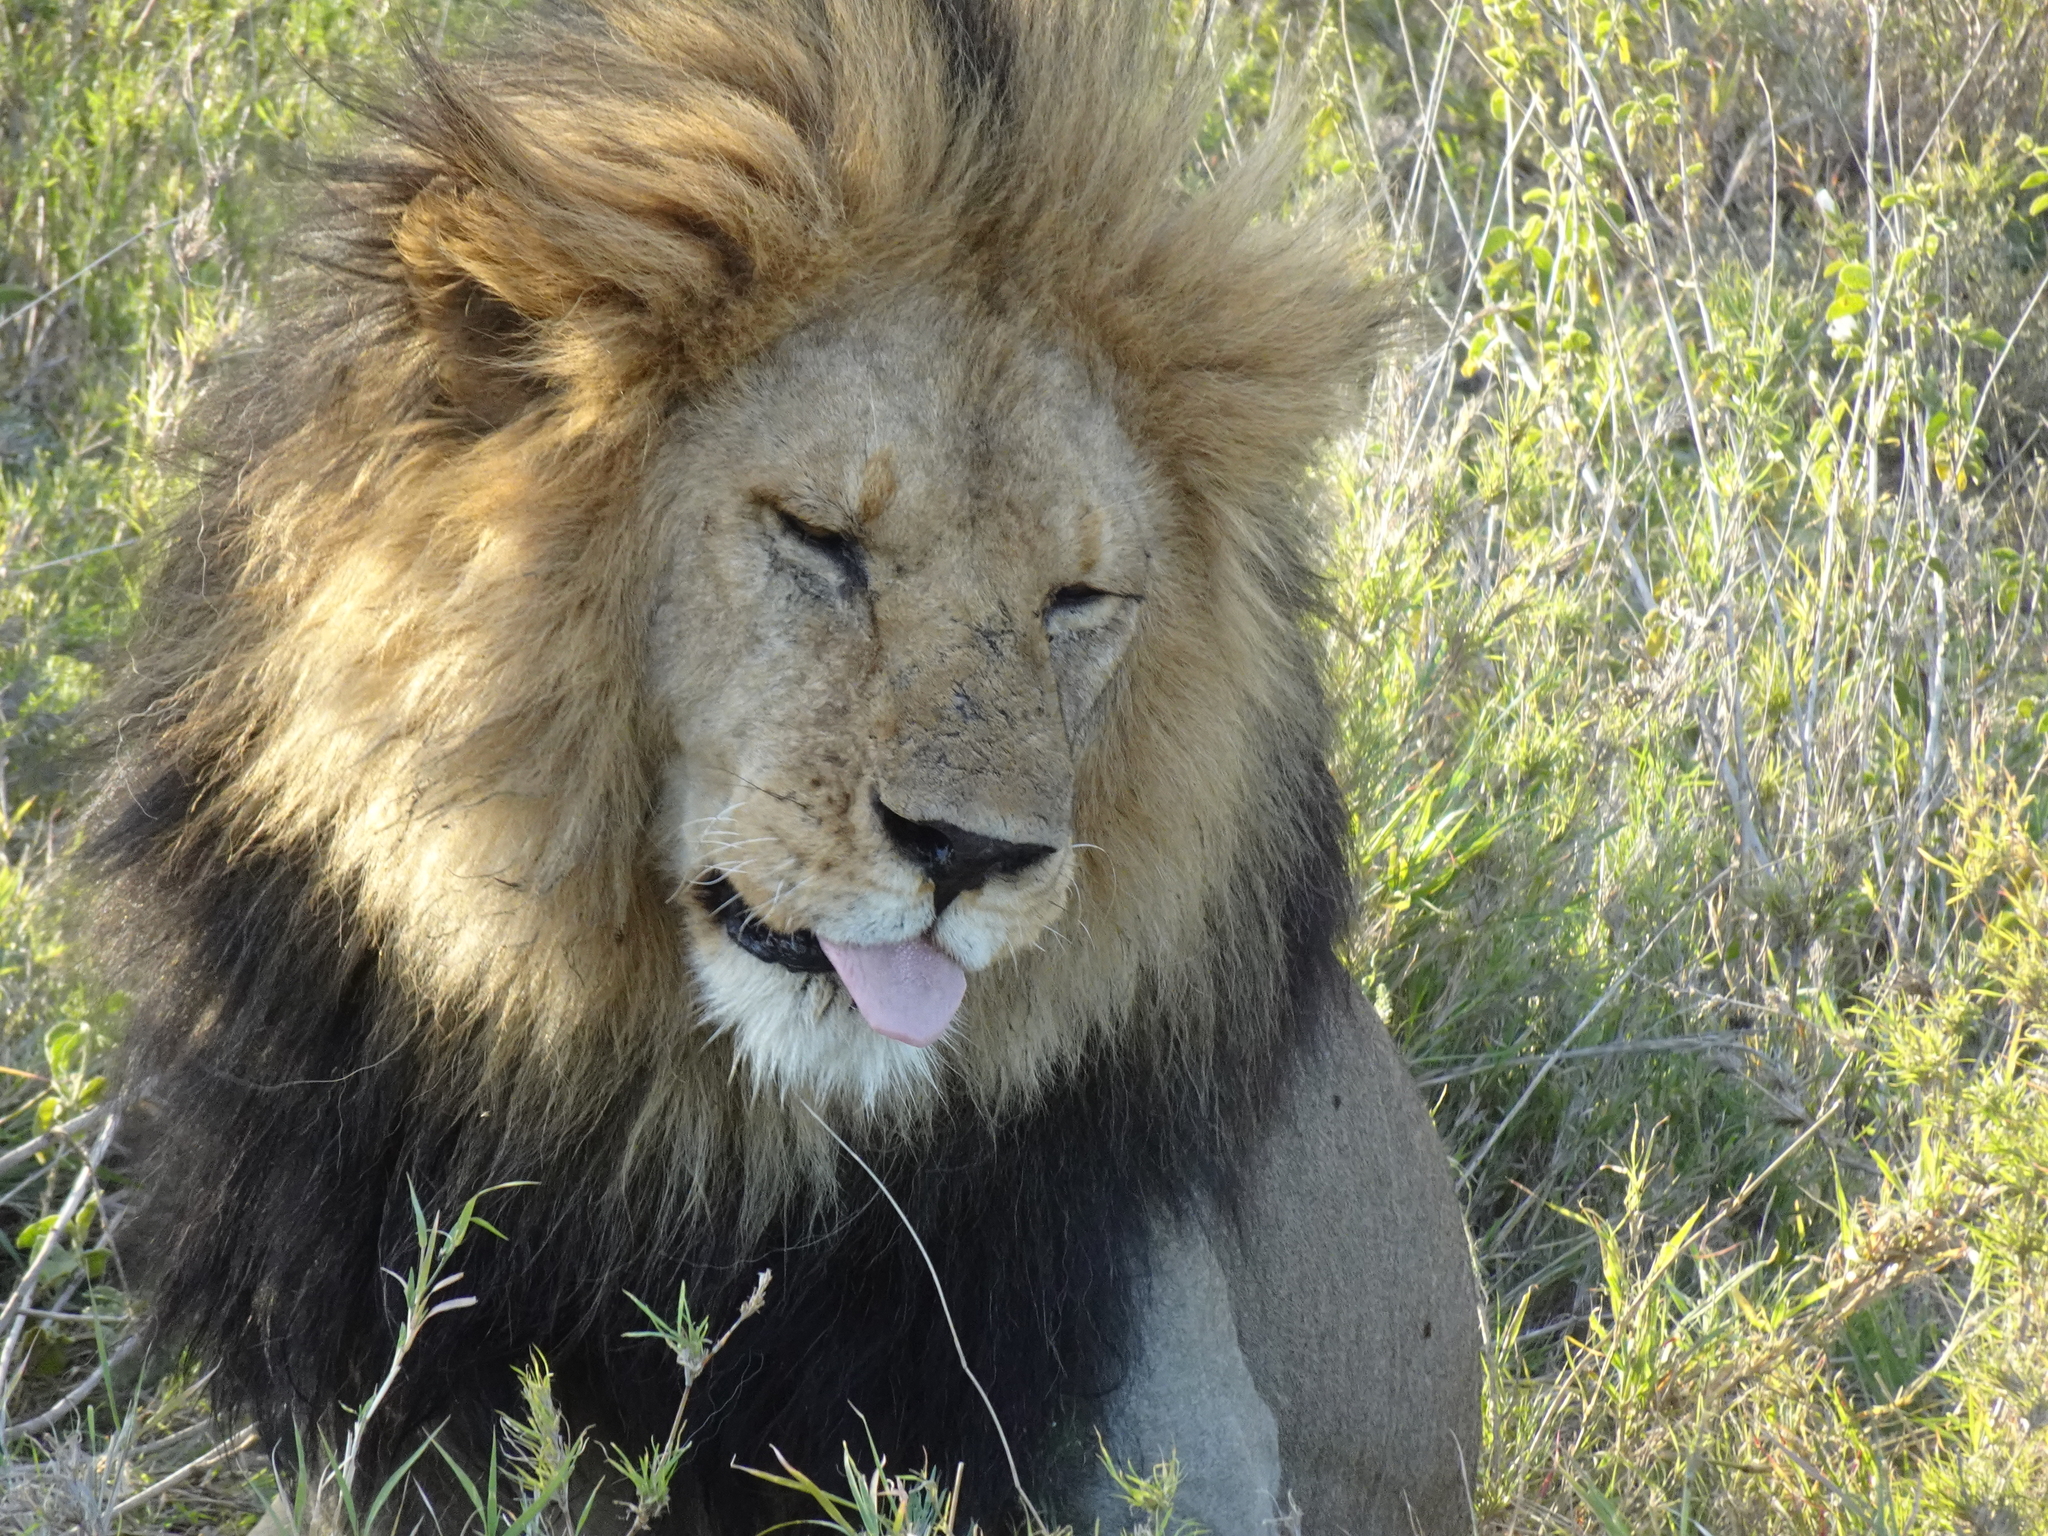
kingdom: Animalia
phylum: Chordata
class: Mammalia
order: Carnivora
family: Felidae
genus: Panthera
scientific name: Panthera leo
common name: Lion
